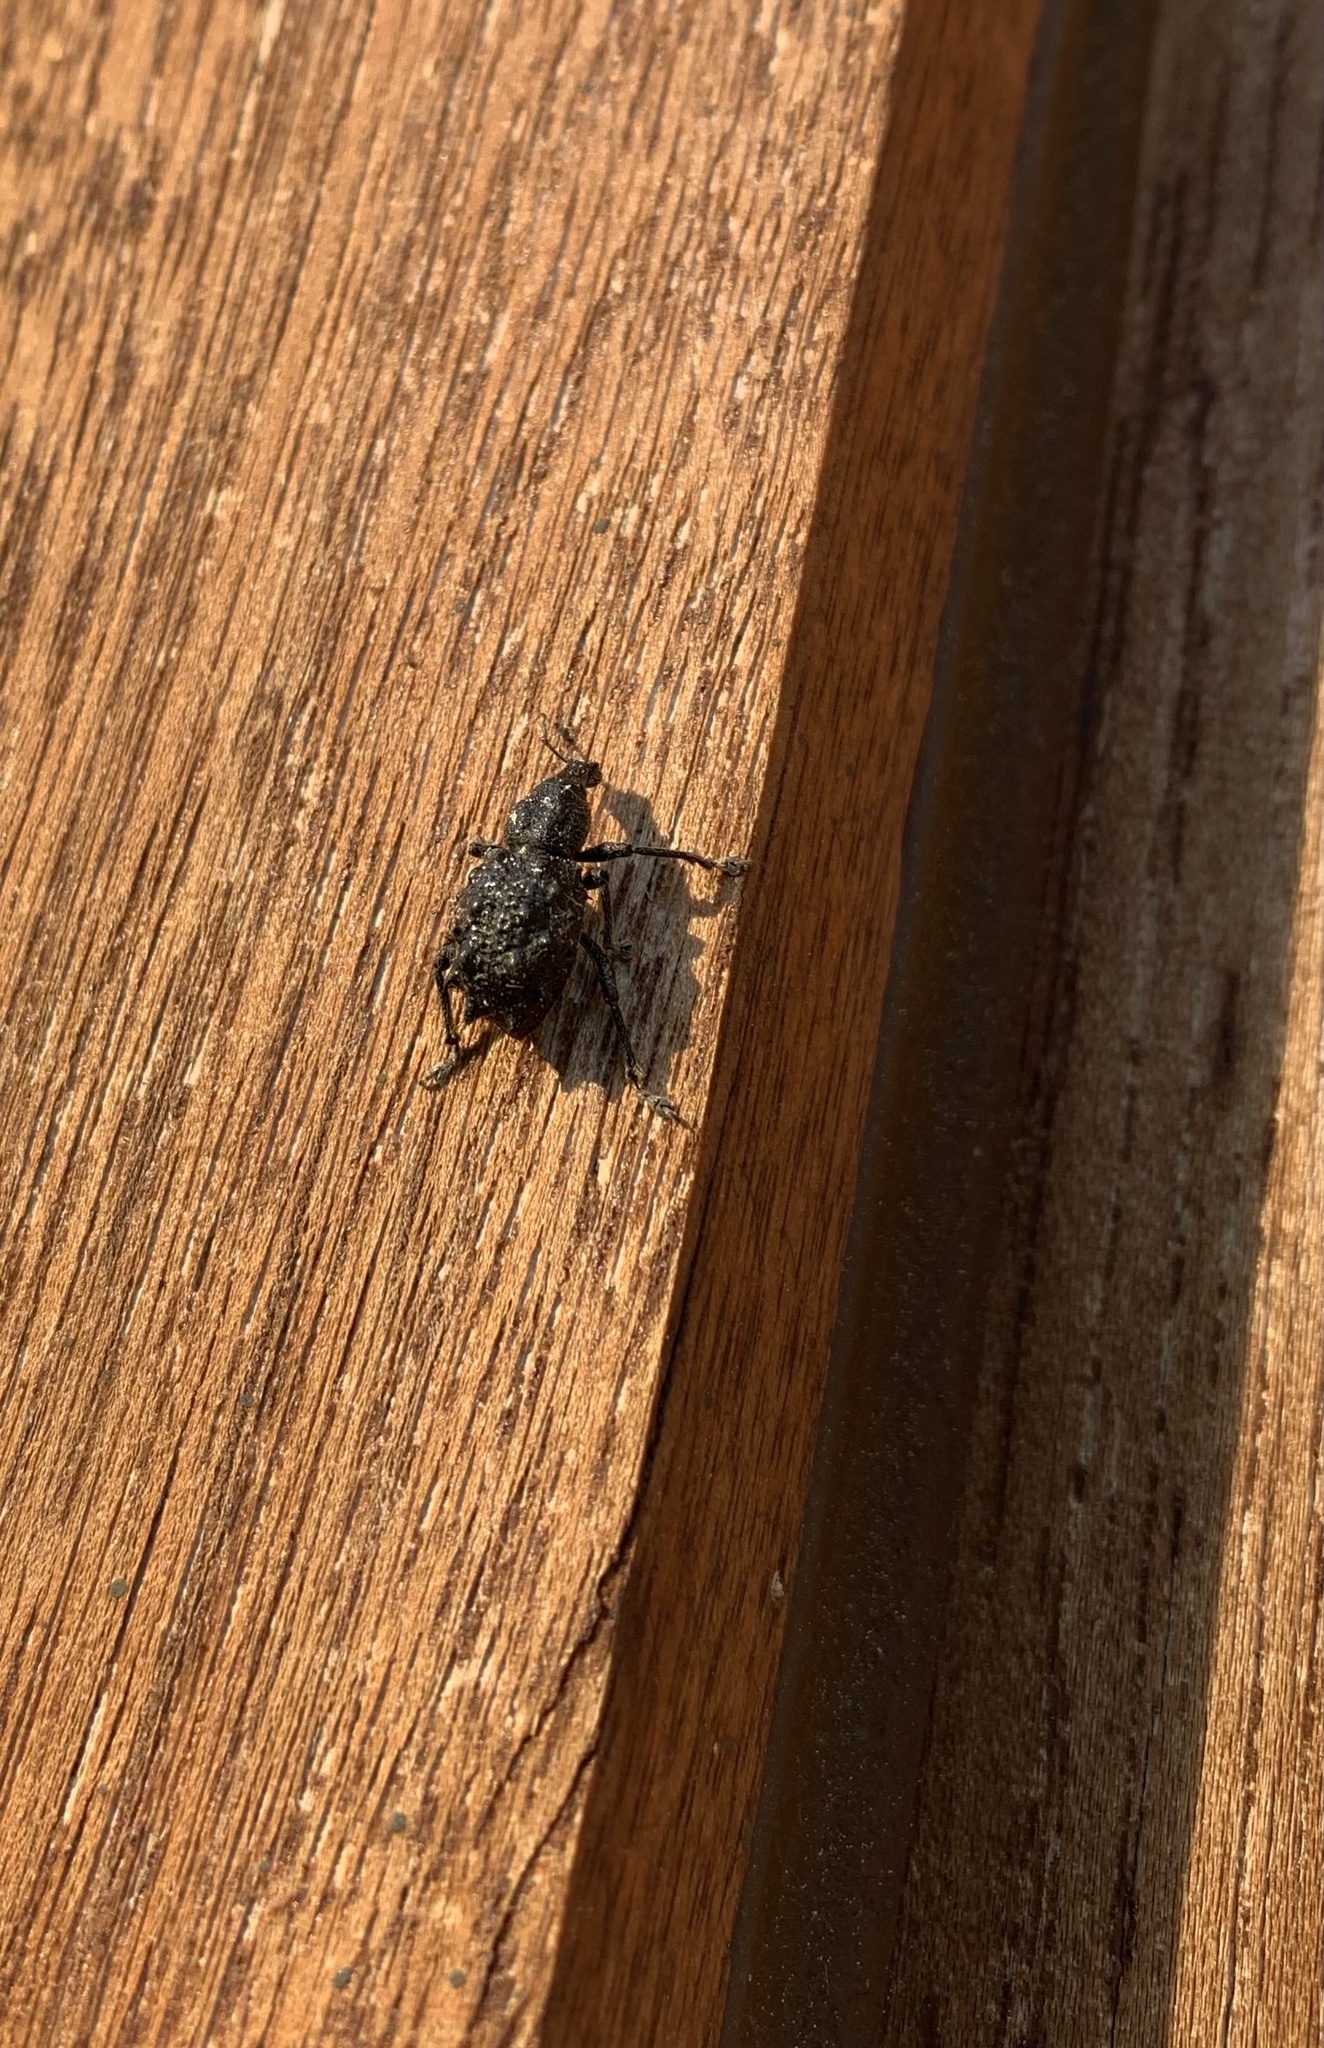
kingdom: Animalia
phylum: Arthropoda
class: Insecta
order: Coleoptera
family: Curculionidae
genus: Megalometis
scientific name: Megalometis spiniferus
